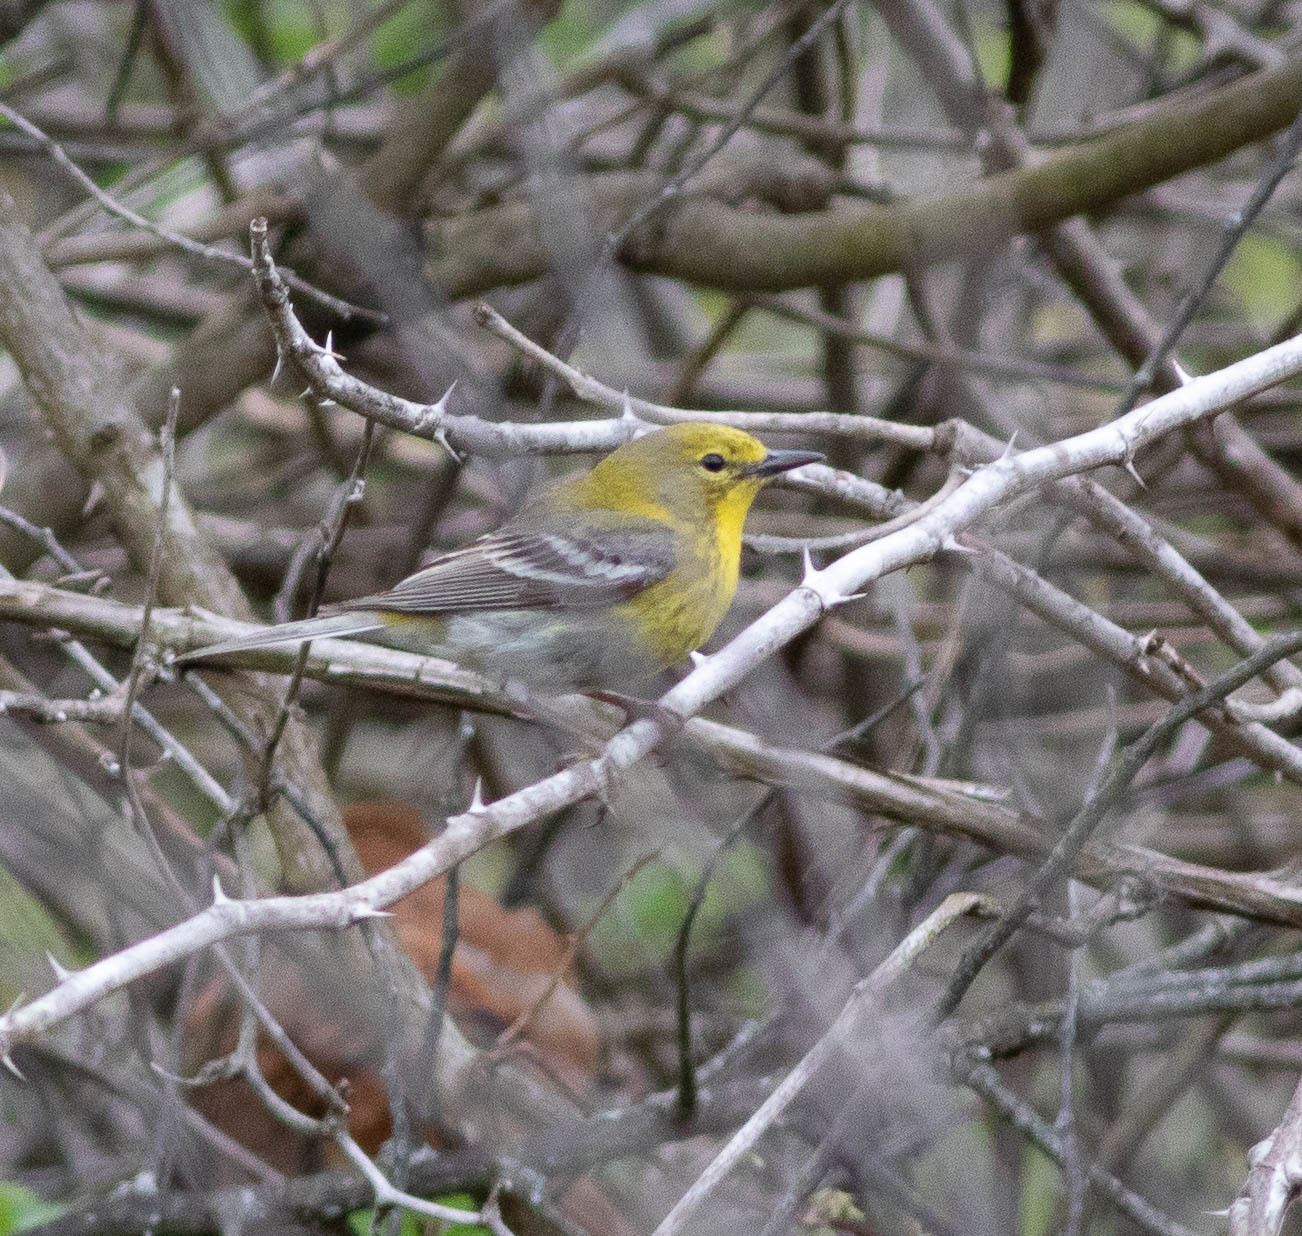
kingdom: Animalia
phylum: Chordata
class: Aves
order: Passeriformes
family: Parulidae
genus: Setophaga
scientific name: Setophaga pinus
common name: Pine warbler
